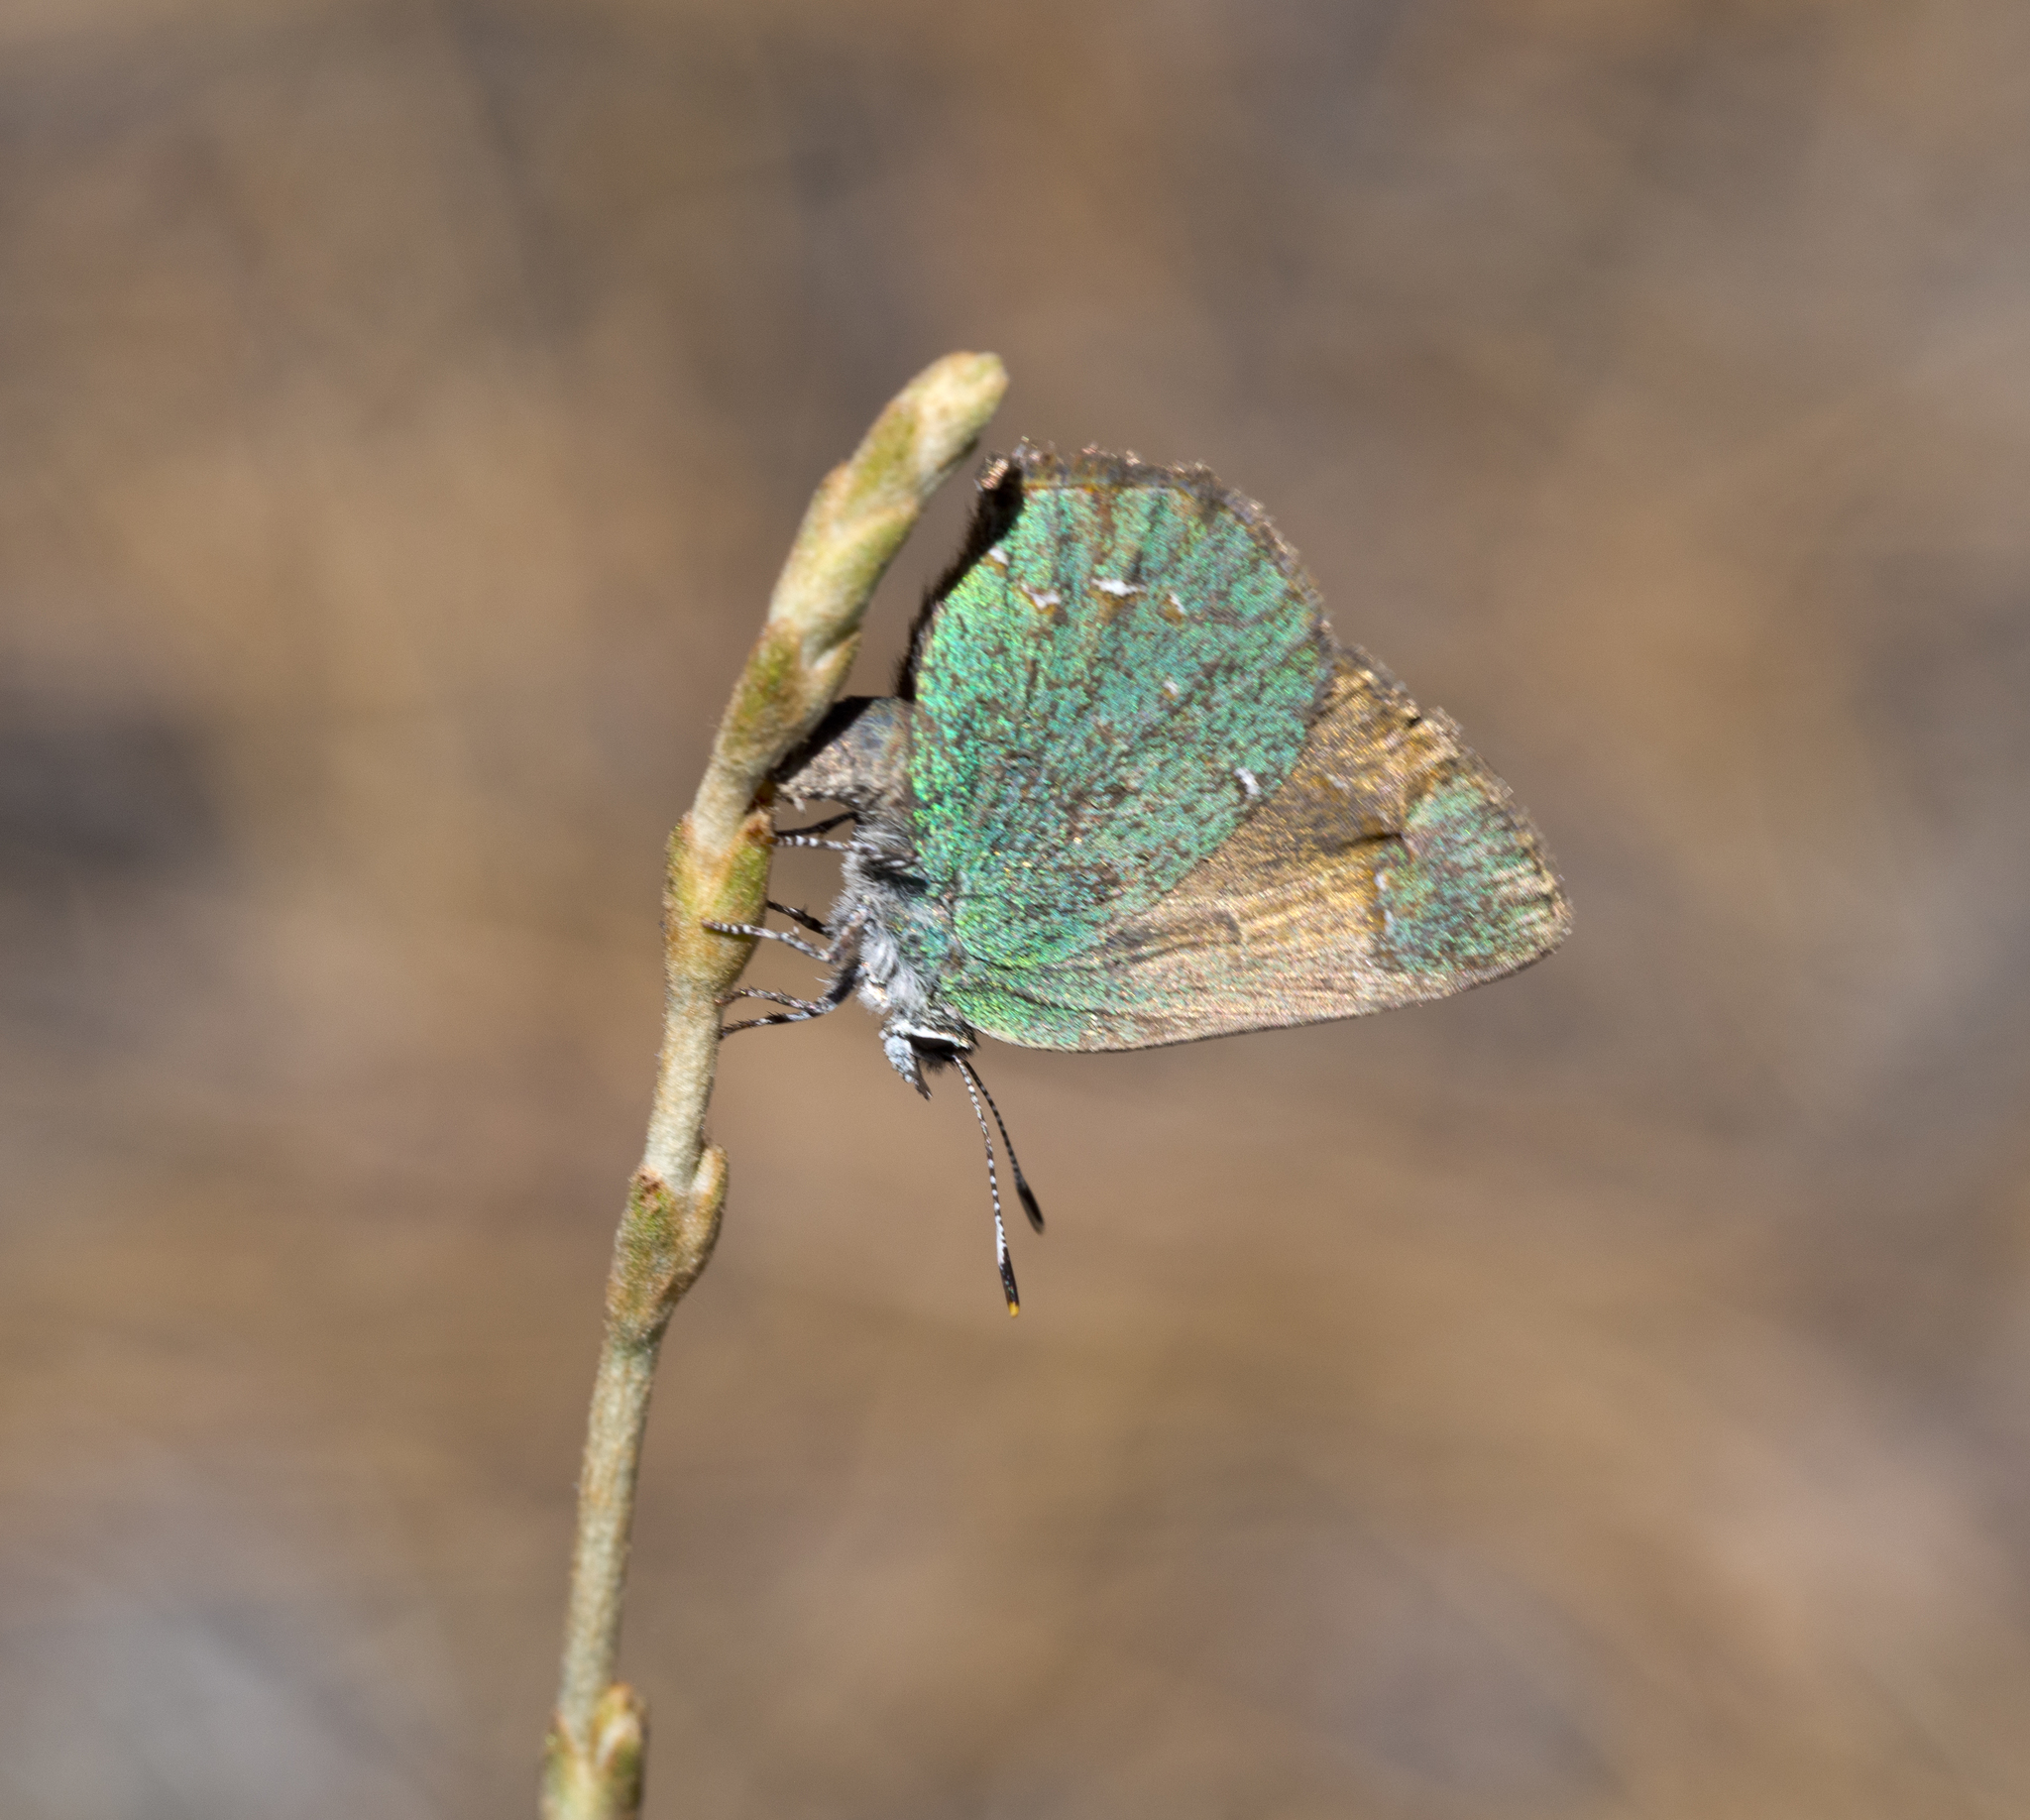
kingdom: Animalia
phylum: Arthropoda
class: Insecta
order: Lepidoptera
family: Lycaenidae
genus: Callophrys
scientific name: Callophrys apama
